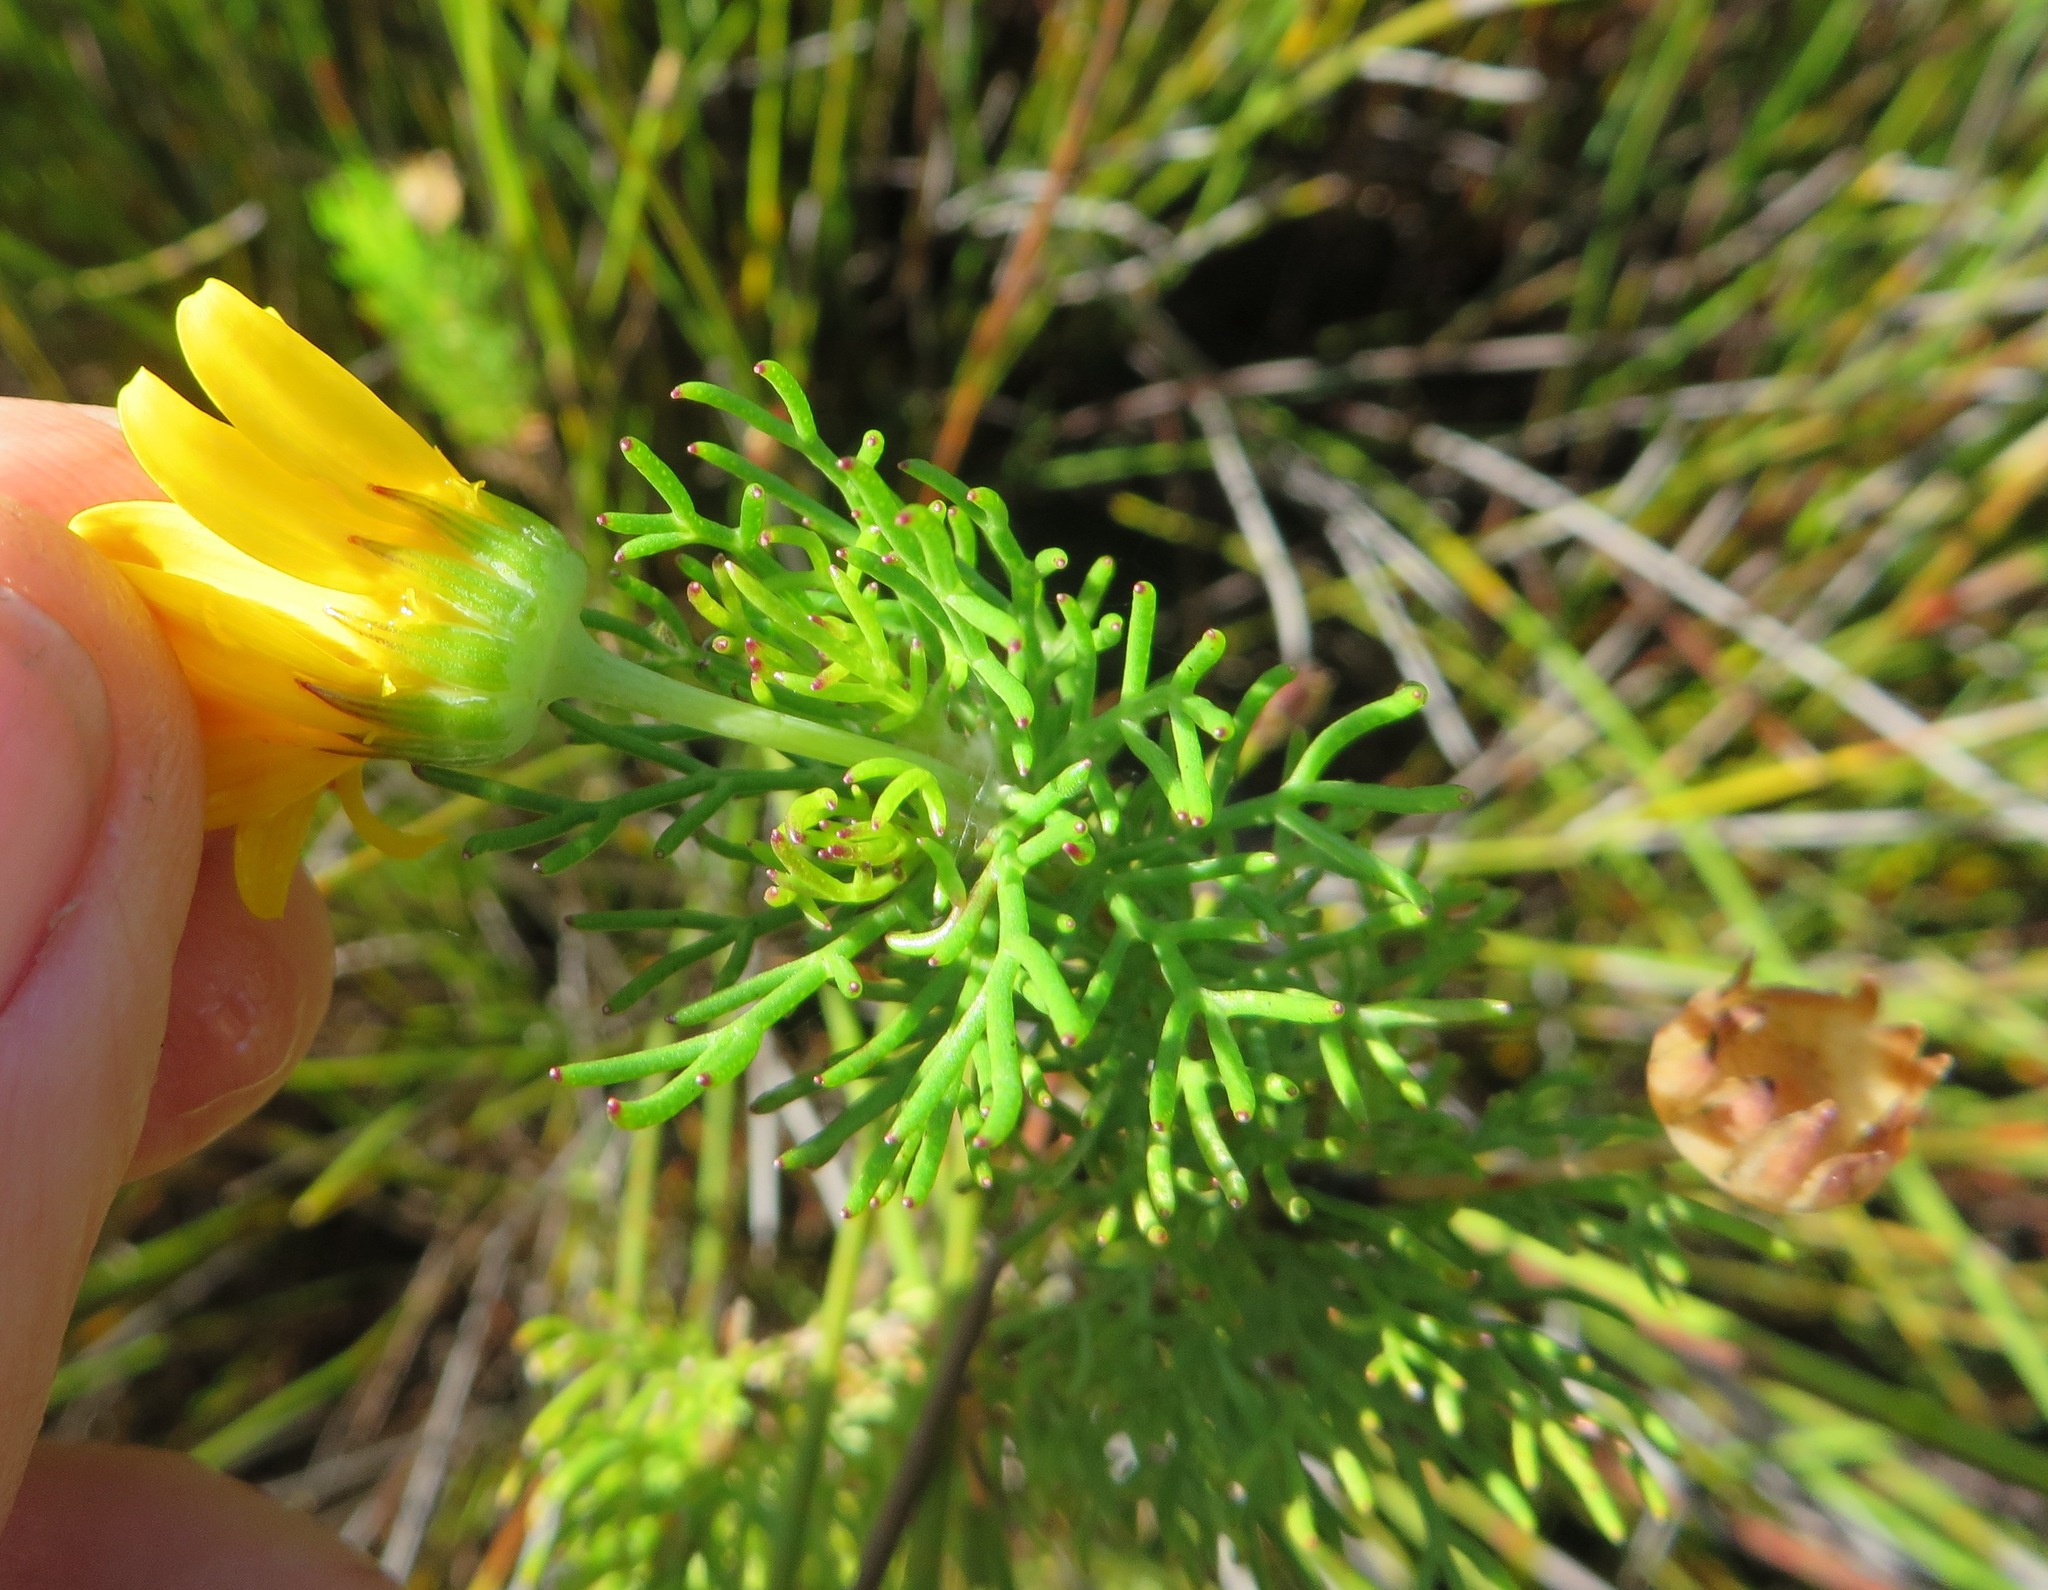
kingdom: Plantae
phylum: Tracheophyta
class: Magnoliopsida
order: Asterales
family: Asteraceae
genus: Euryops
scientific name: Euryops abrotanifolius
